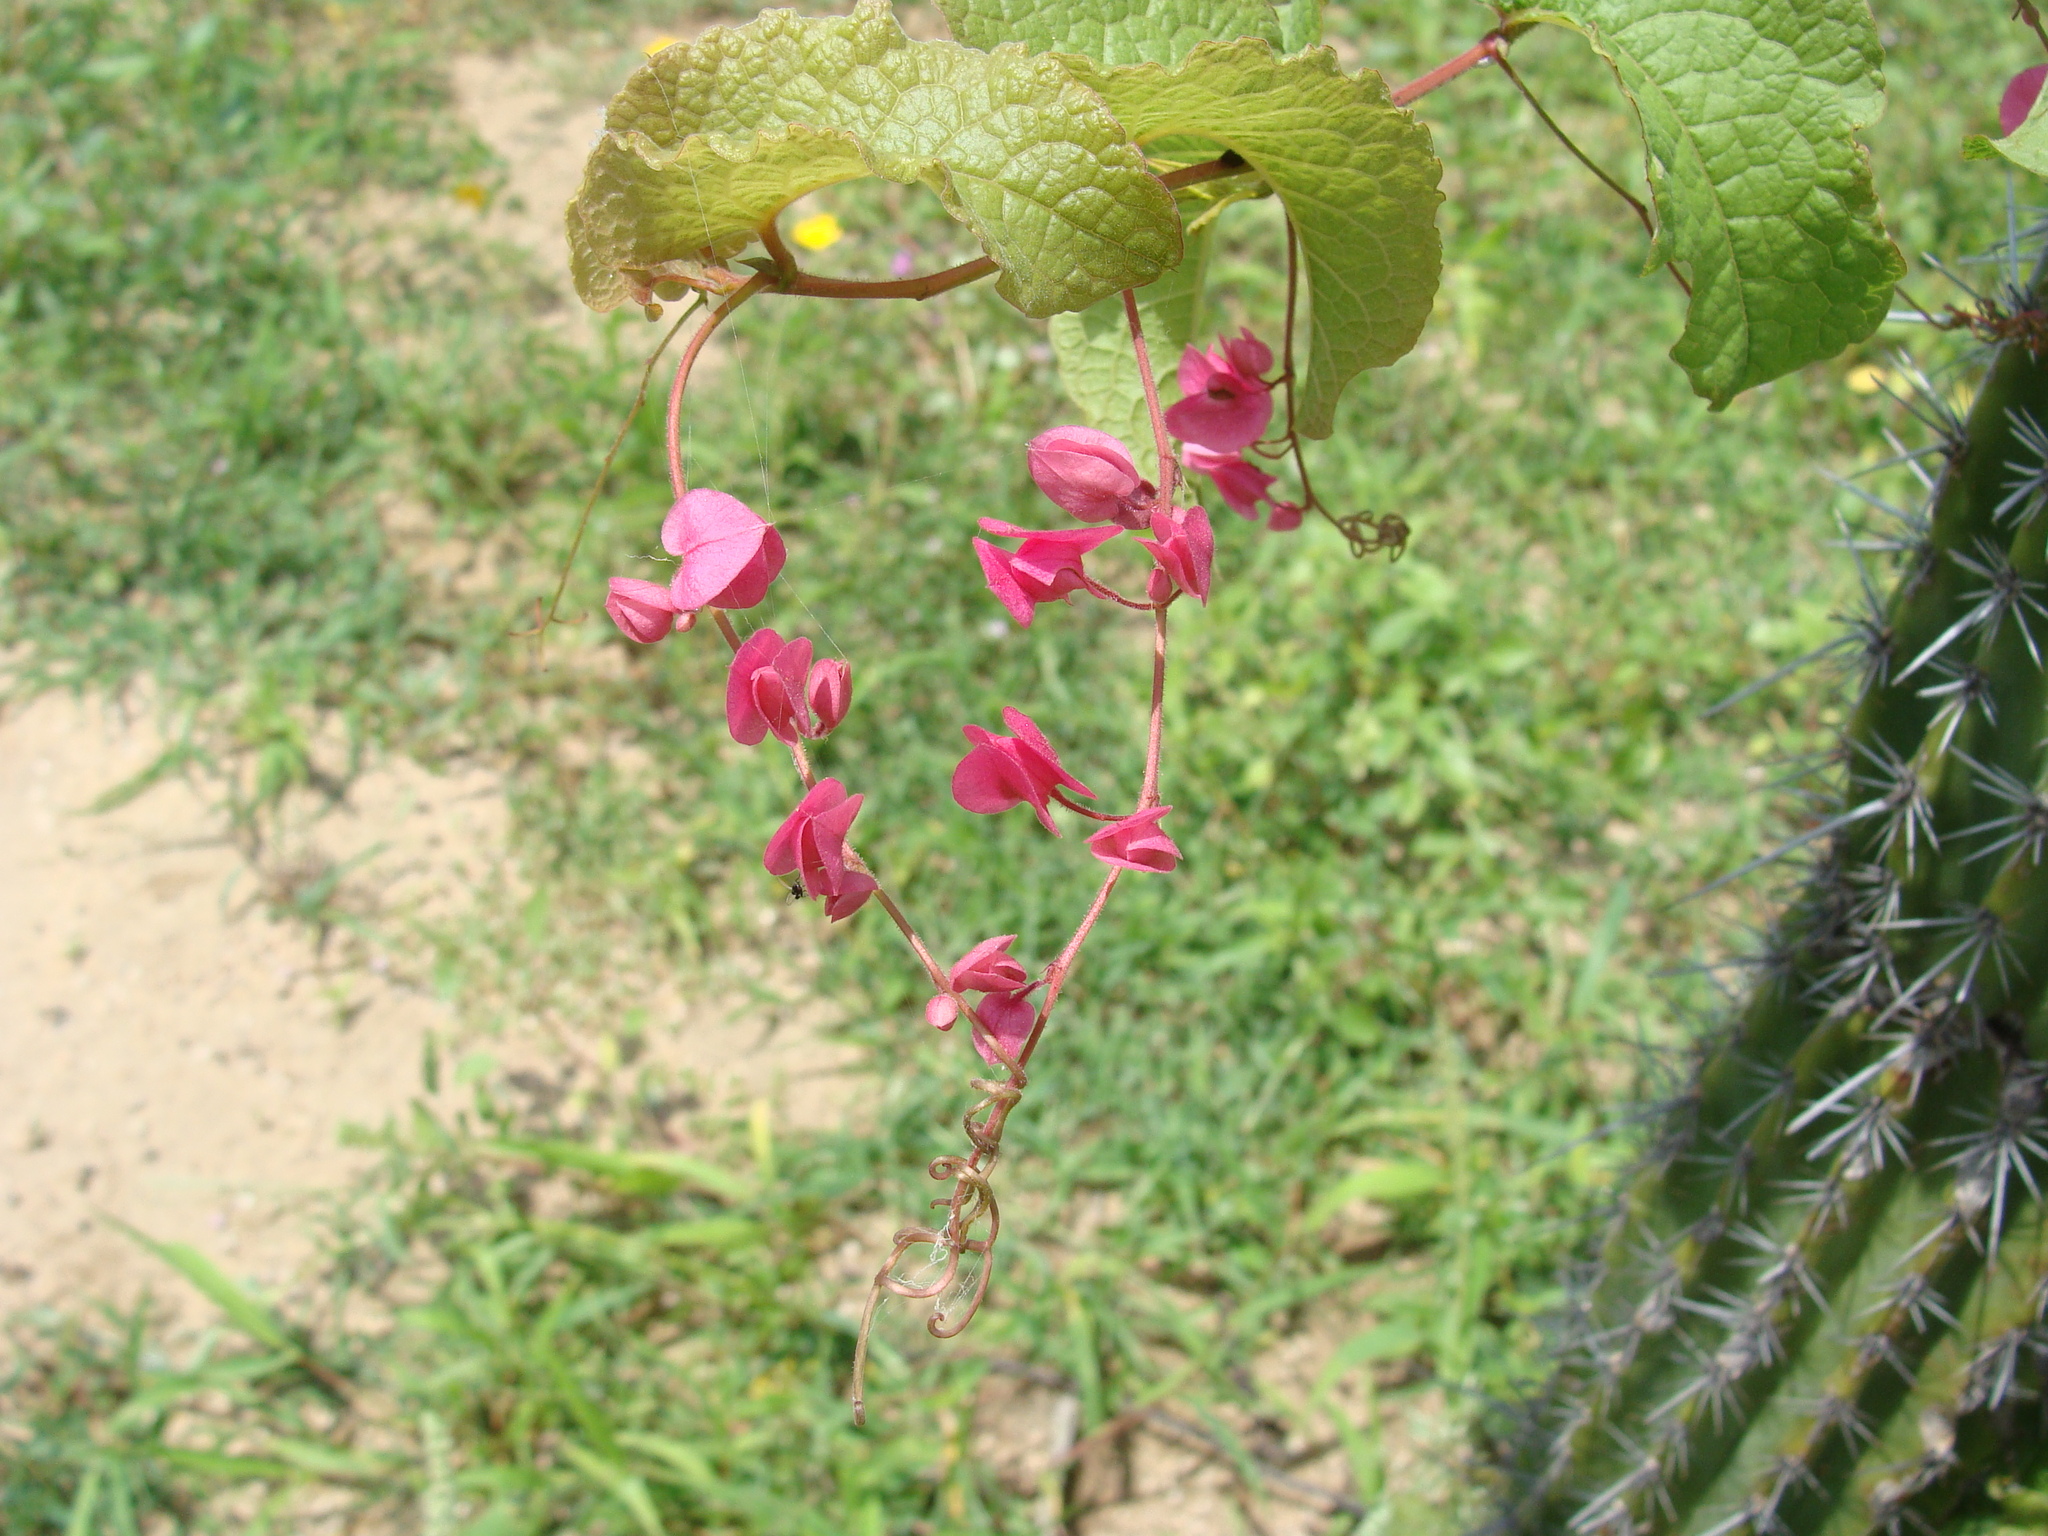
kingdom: Plantae
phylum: Tracheophyta
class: Magnoliopsida
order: Caryophyllales
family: Polygonaceae
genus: Antigonon
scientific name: Antigonon leptopus
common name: Coral vine
